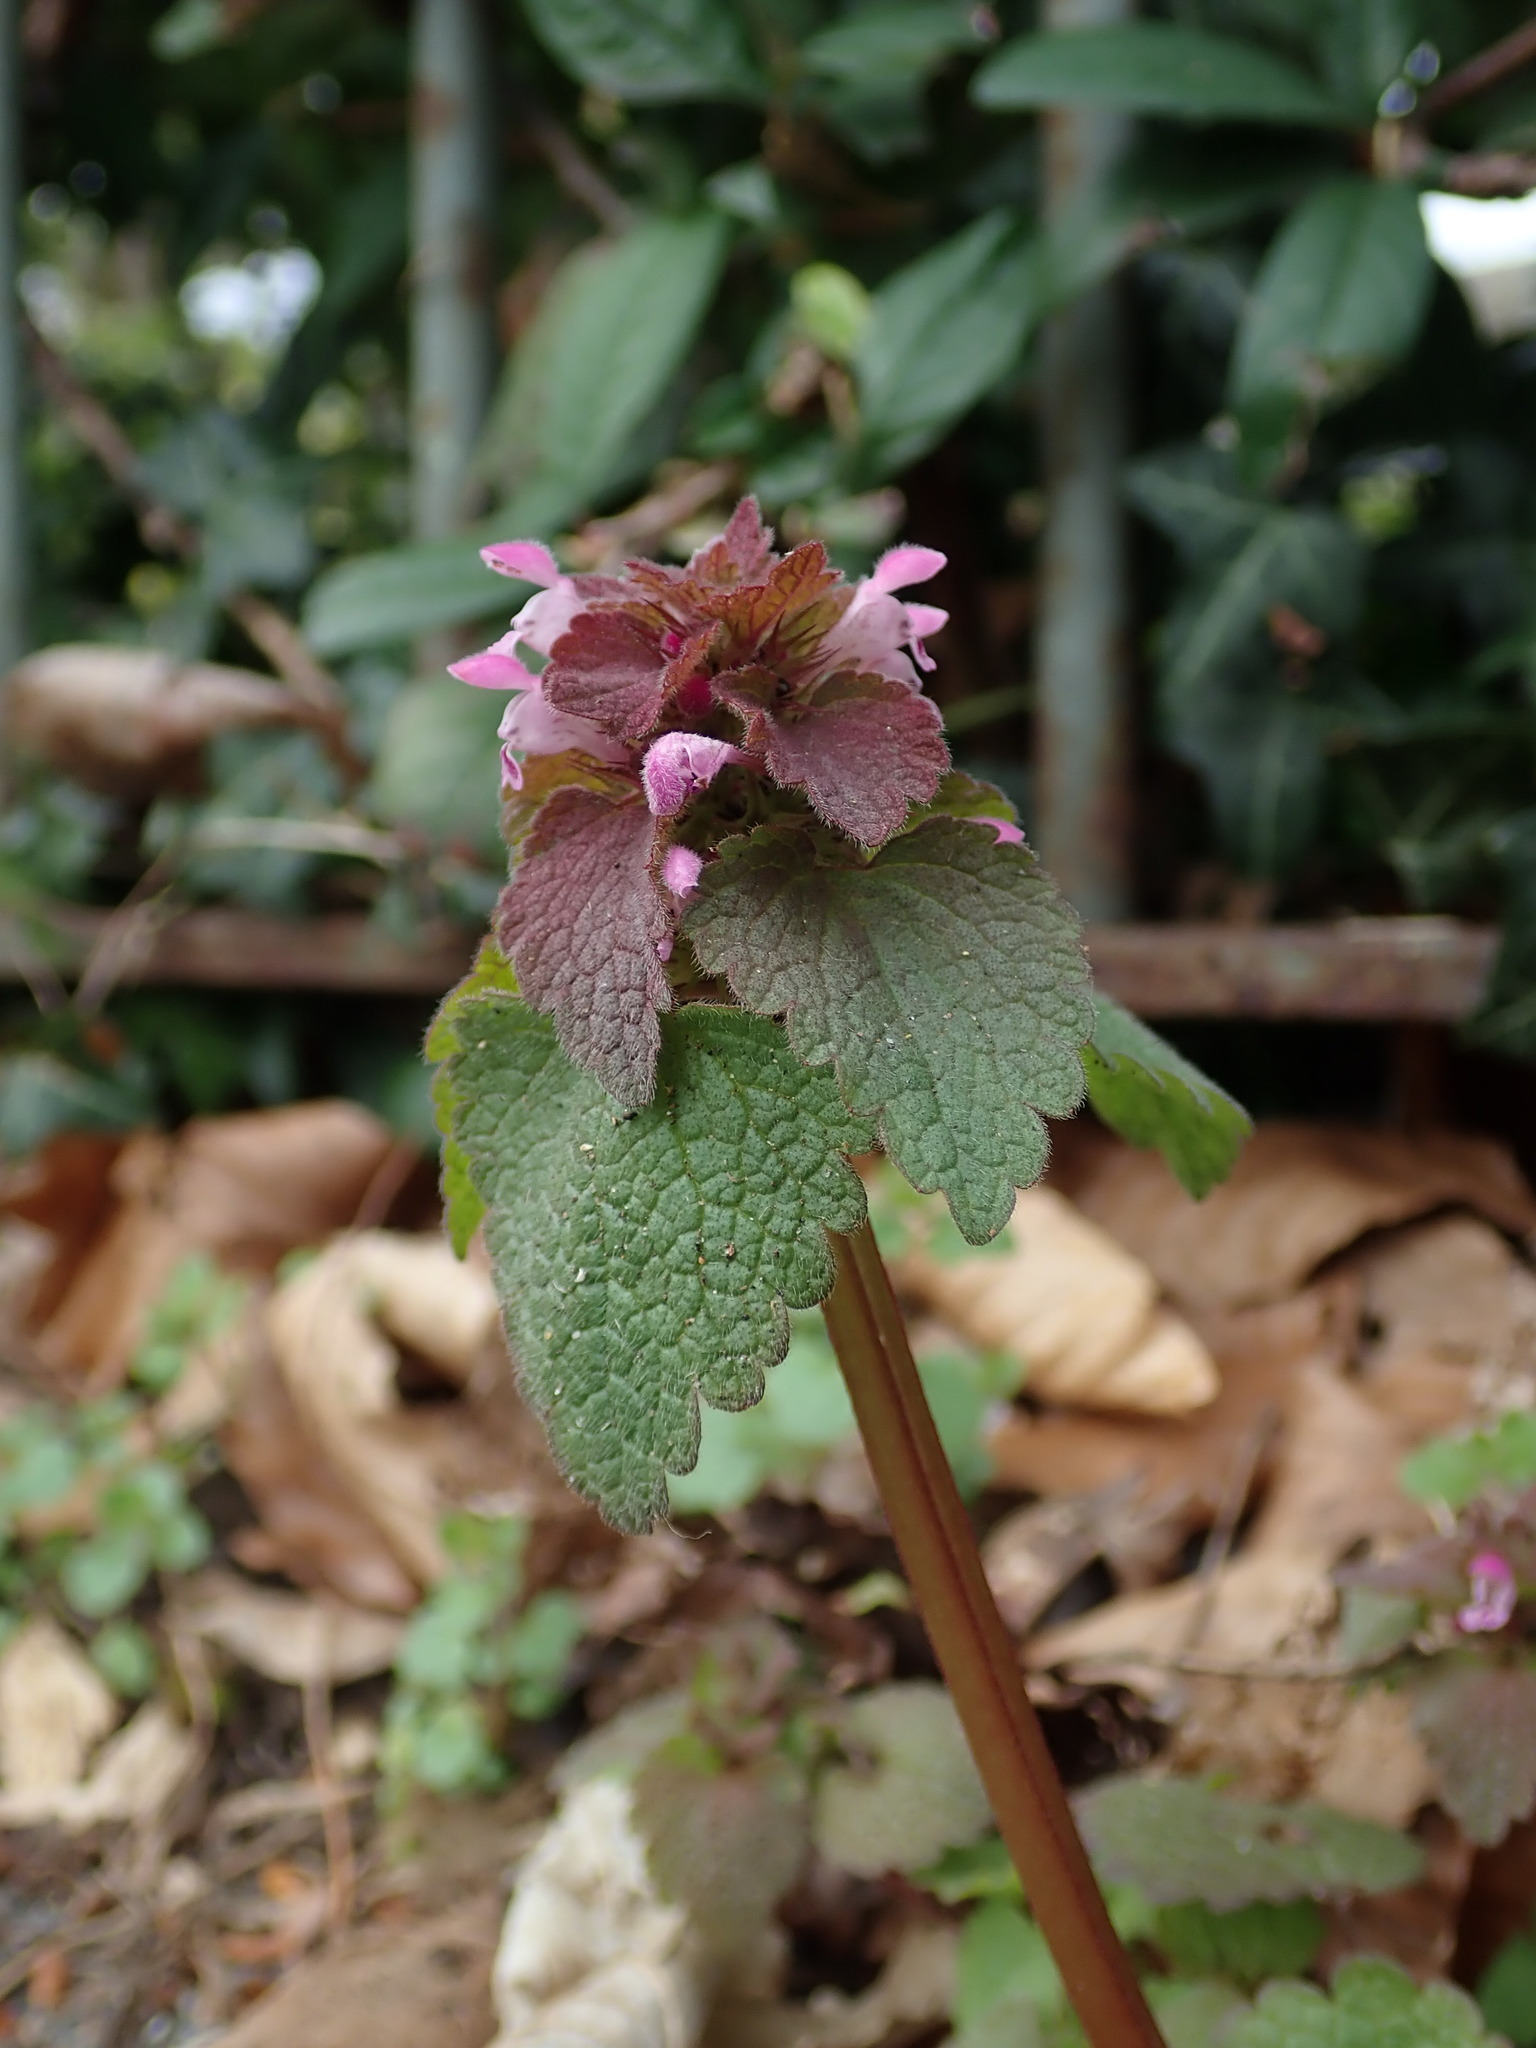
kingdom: Plantae
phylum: Tracheophyta
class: Magnoliopsida
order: Lamiales
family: Lamiaceae
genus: Lamium
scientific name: Lamium purpureum
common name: Red dead-nettle
